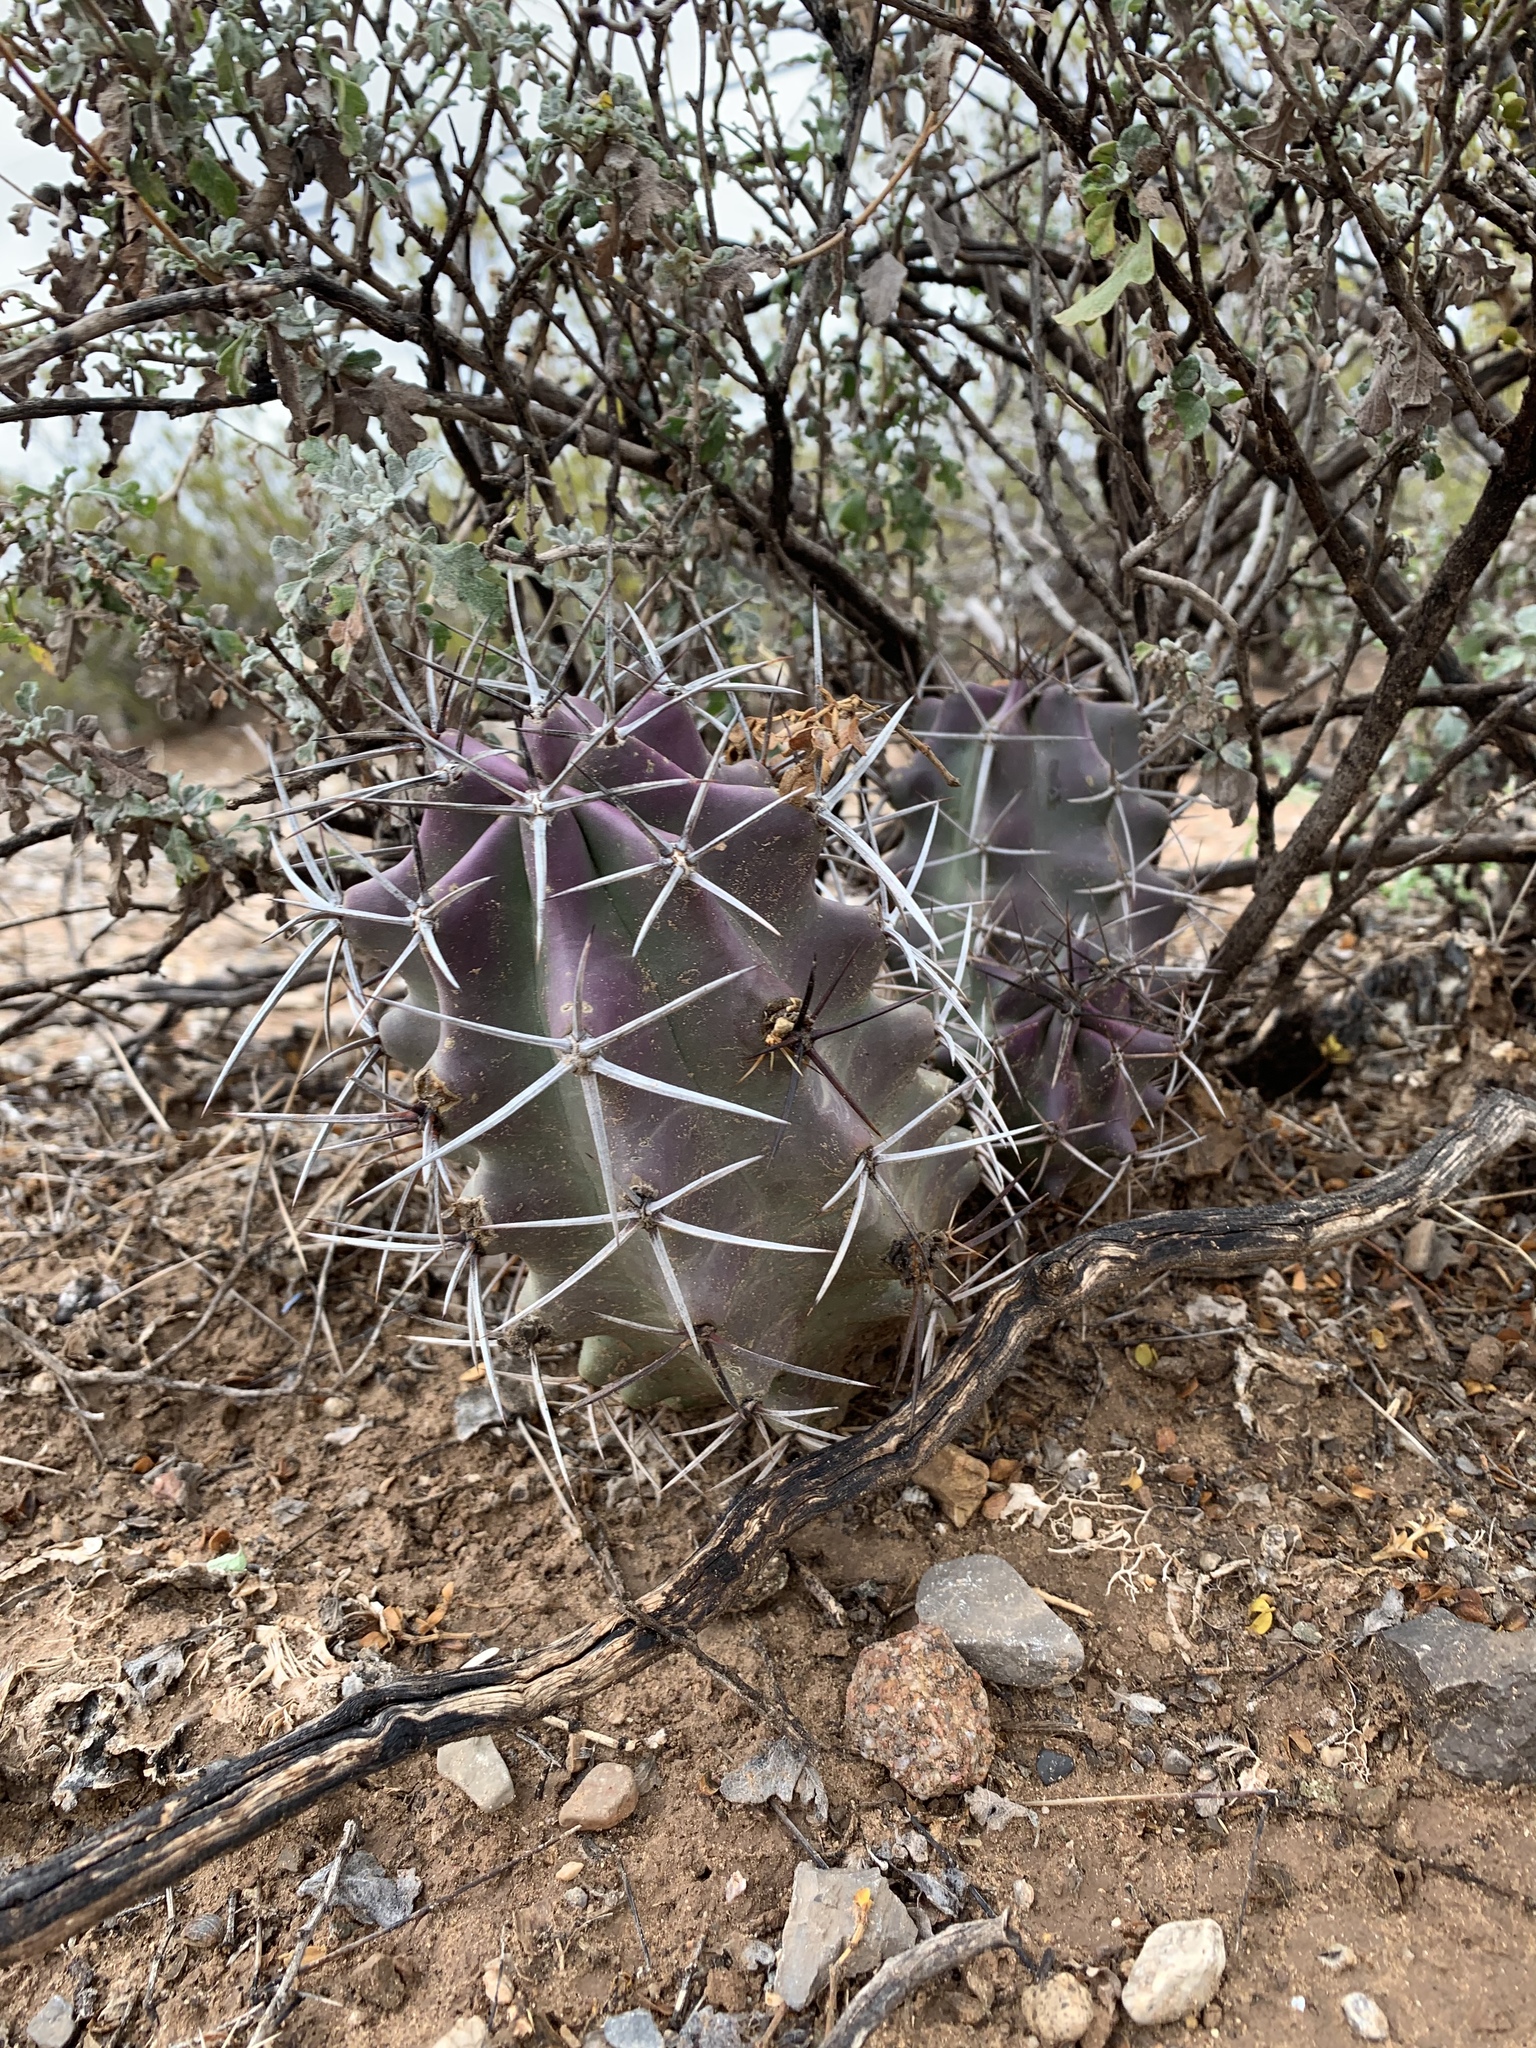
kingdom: Plantae
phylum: Tracheophyta
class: Magnoliopsida
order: Caryophyllales
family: Cactaceae
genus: Echinocereus
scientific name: Echinocereus triglochidiatus
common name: Claretcup hedgehog
